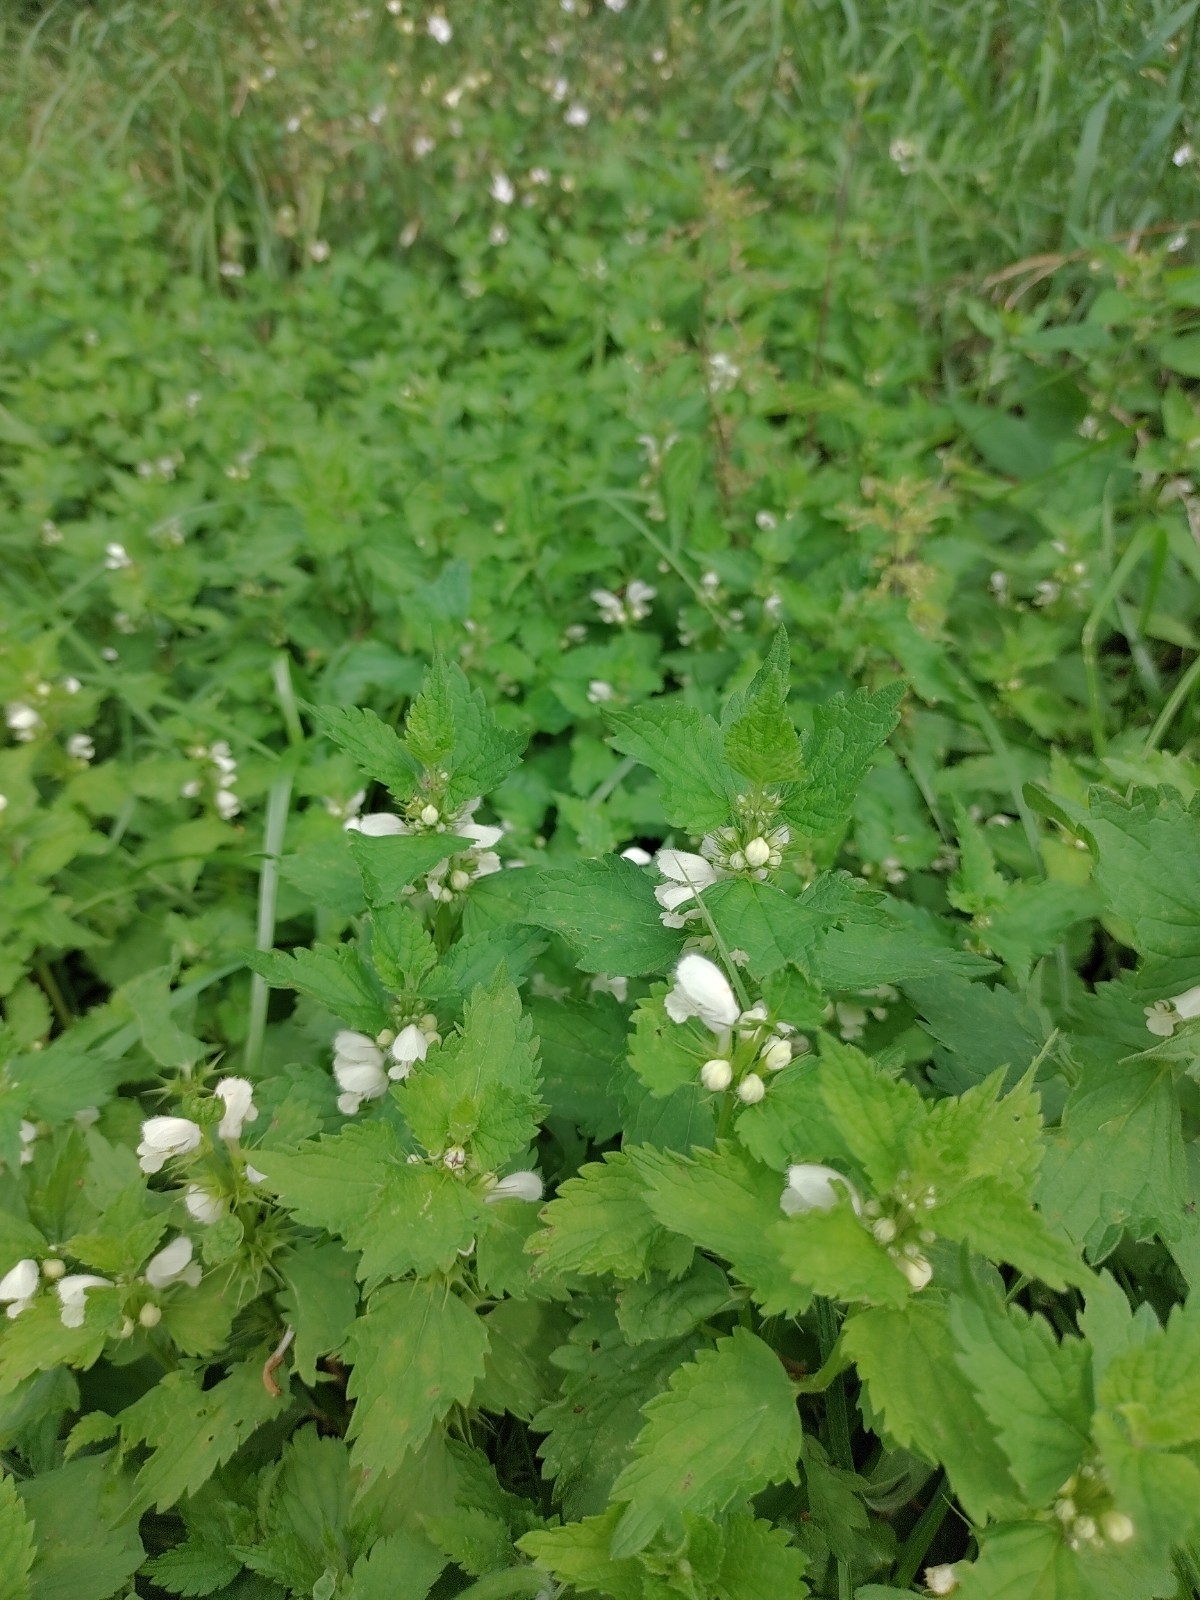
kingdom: Plantae
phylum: Tracheophyta
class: Magnoliopsida
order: Lamiales
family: Lamiaceae
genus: Lamium
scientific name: Lamium album
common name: White dead-nettle
